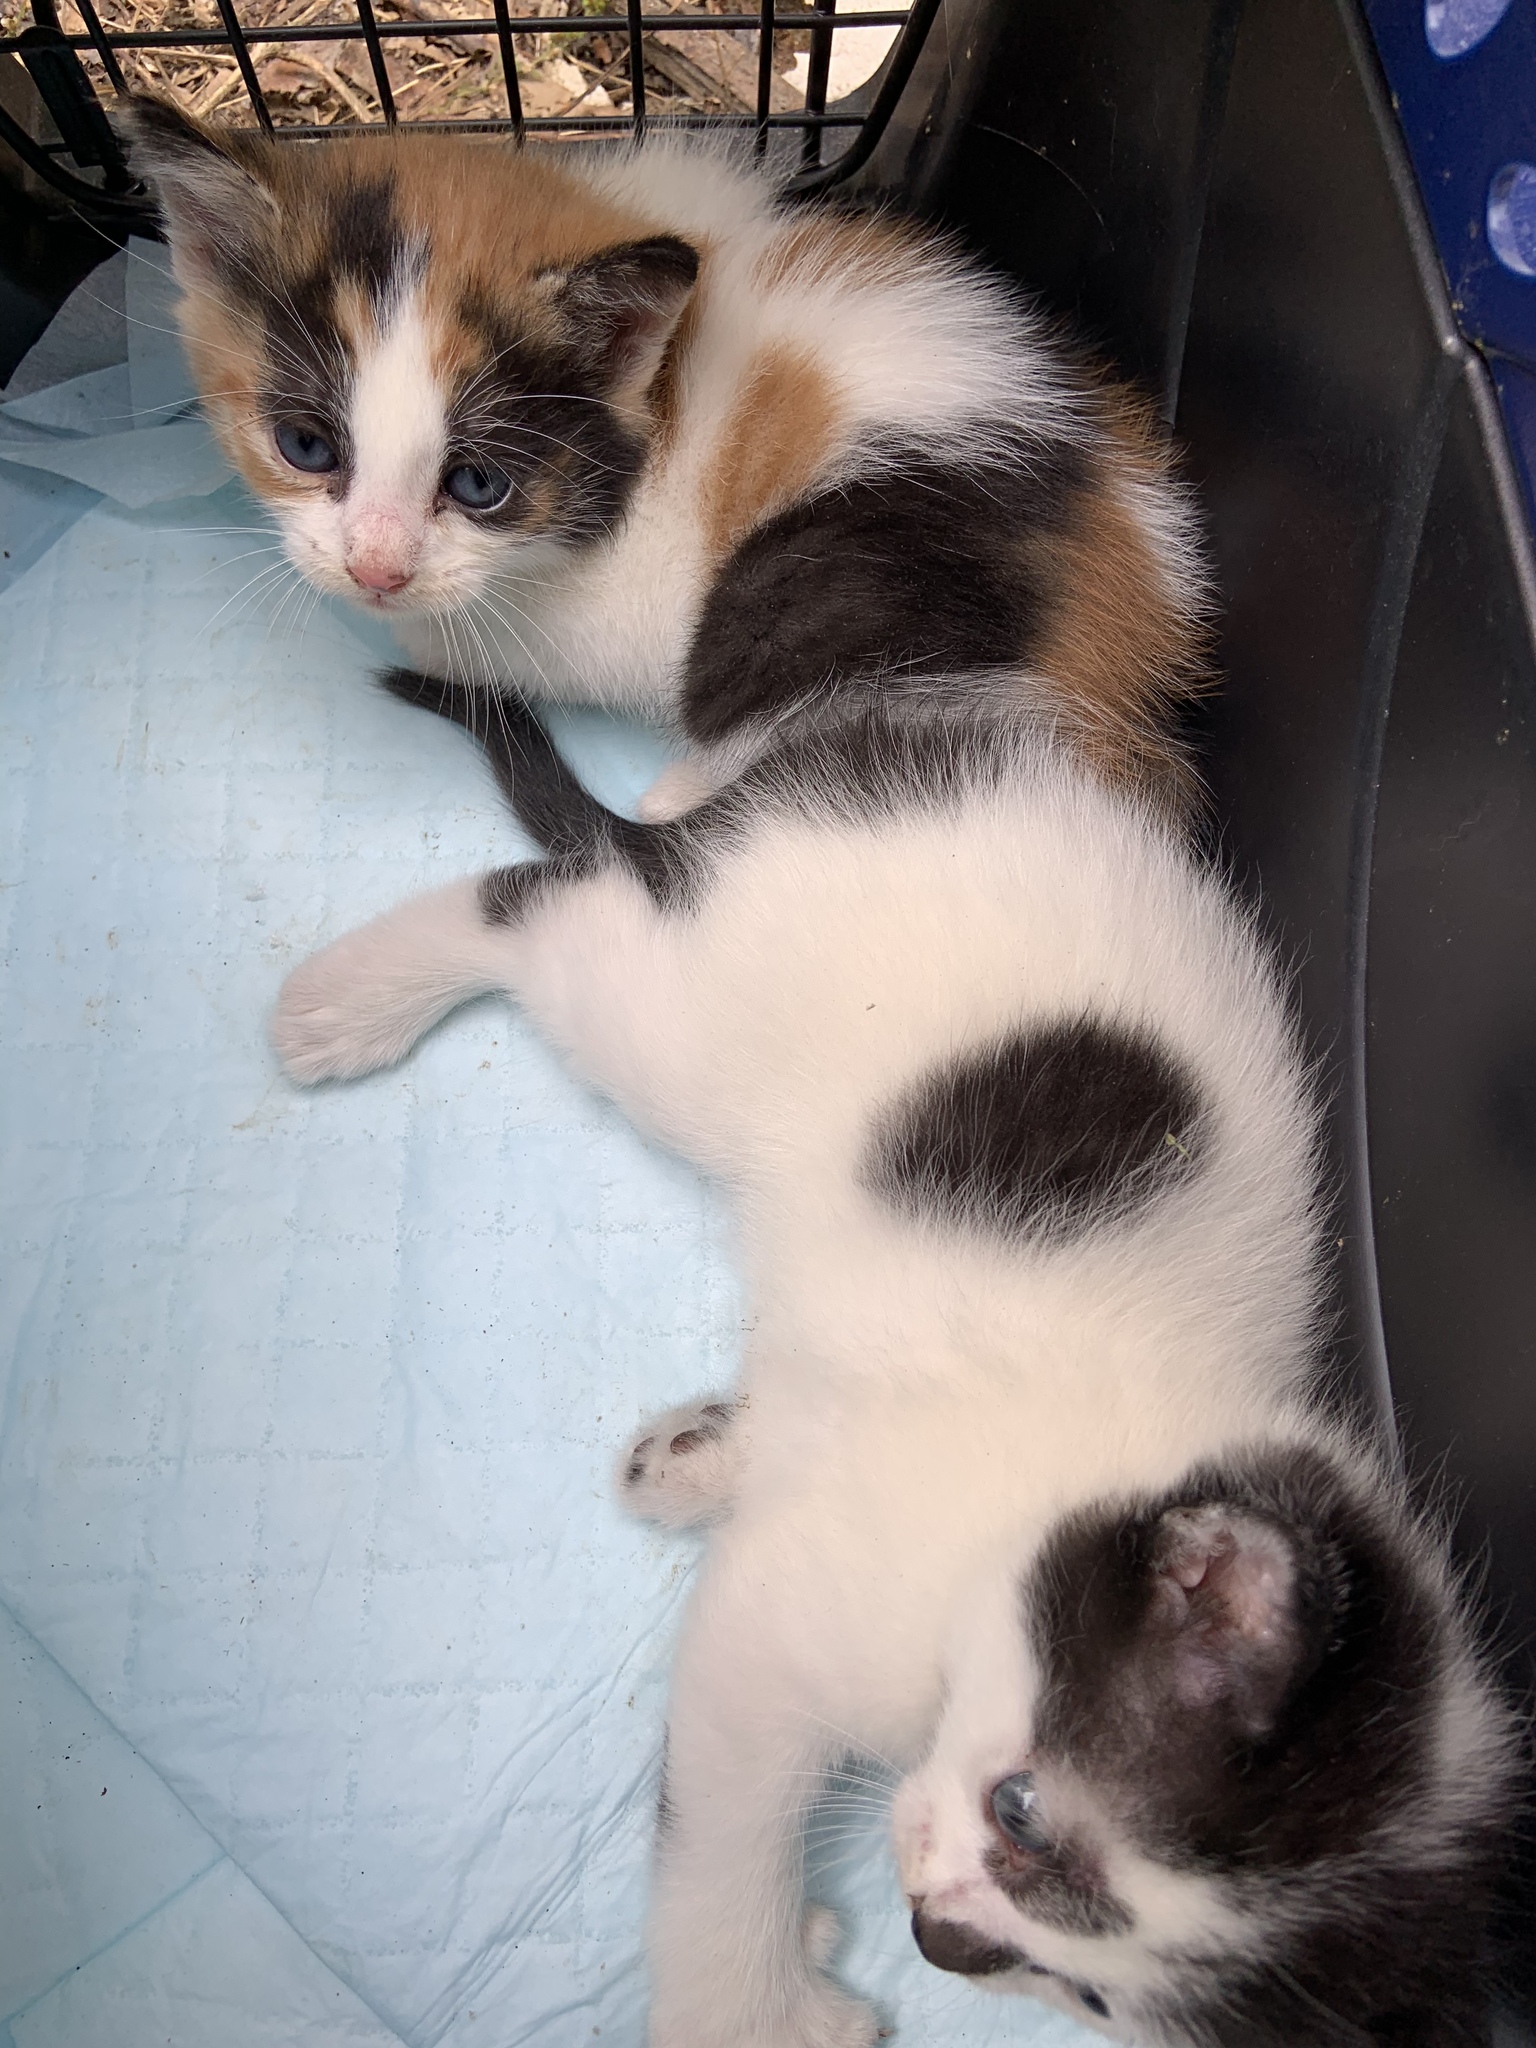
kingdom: Animalia
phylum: Chordata
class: Mammalia
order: Carnivora
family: Felidae
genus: Felis
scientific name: Felis catus
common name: Domestic cat
